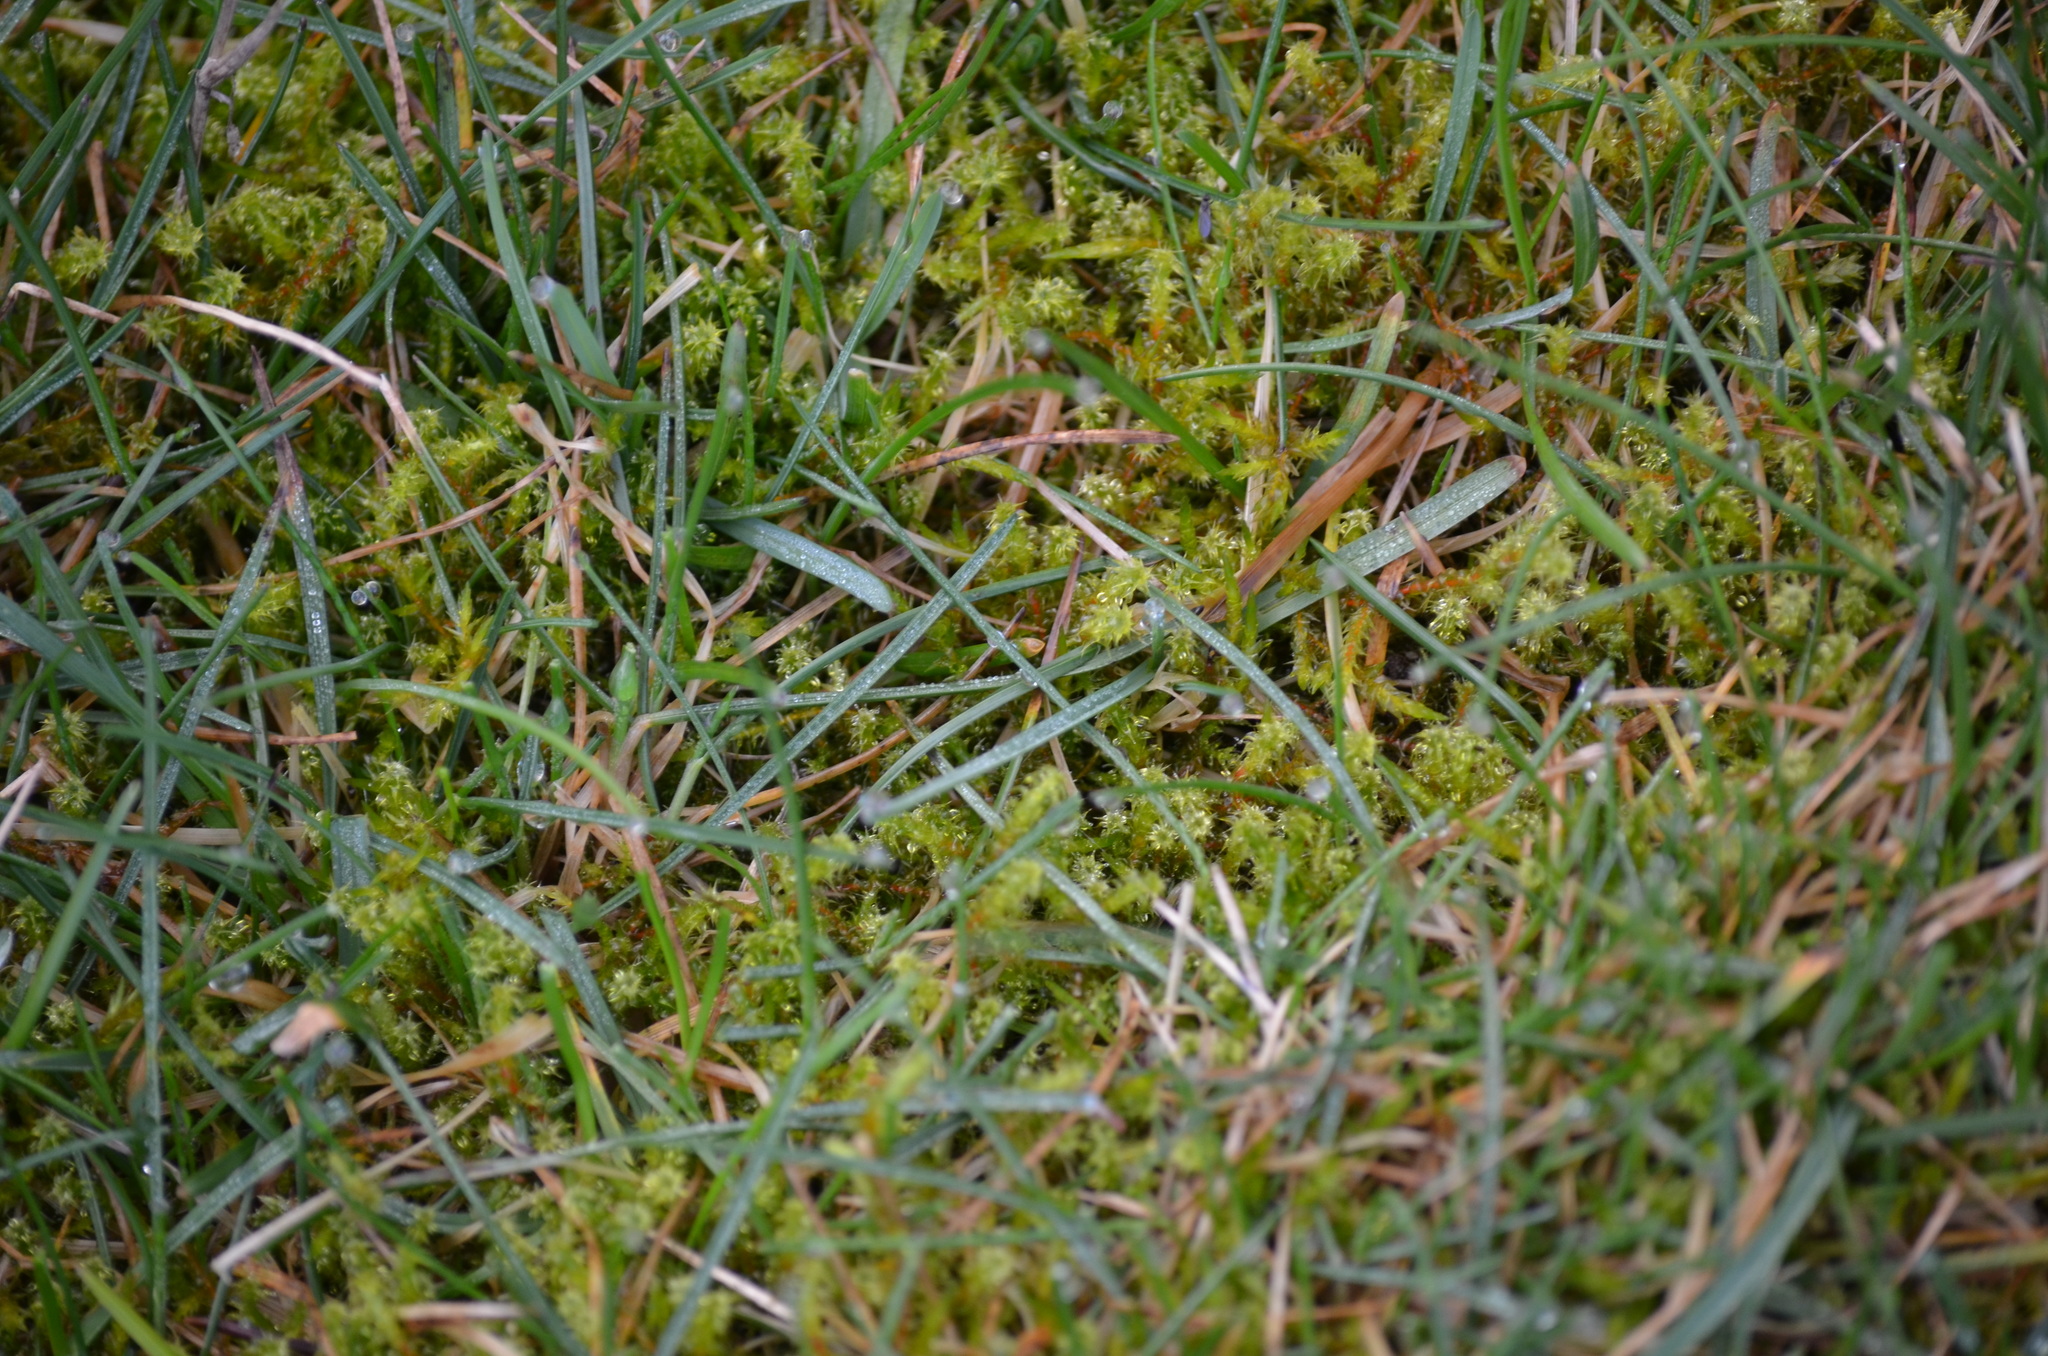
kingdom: Plantae
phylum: Bryophyta
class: Bryopsida
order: Hypnales
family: Hylocomiaceae
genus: Rhytidiadelphus
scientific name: Rhytidiadelphus squarrosus
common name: Springy turf-moss
